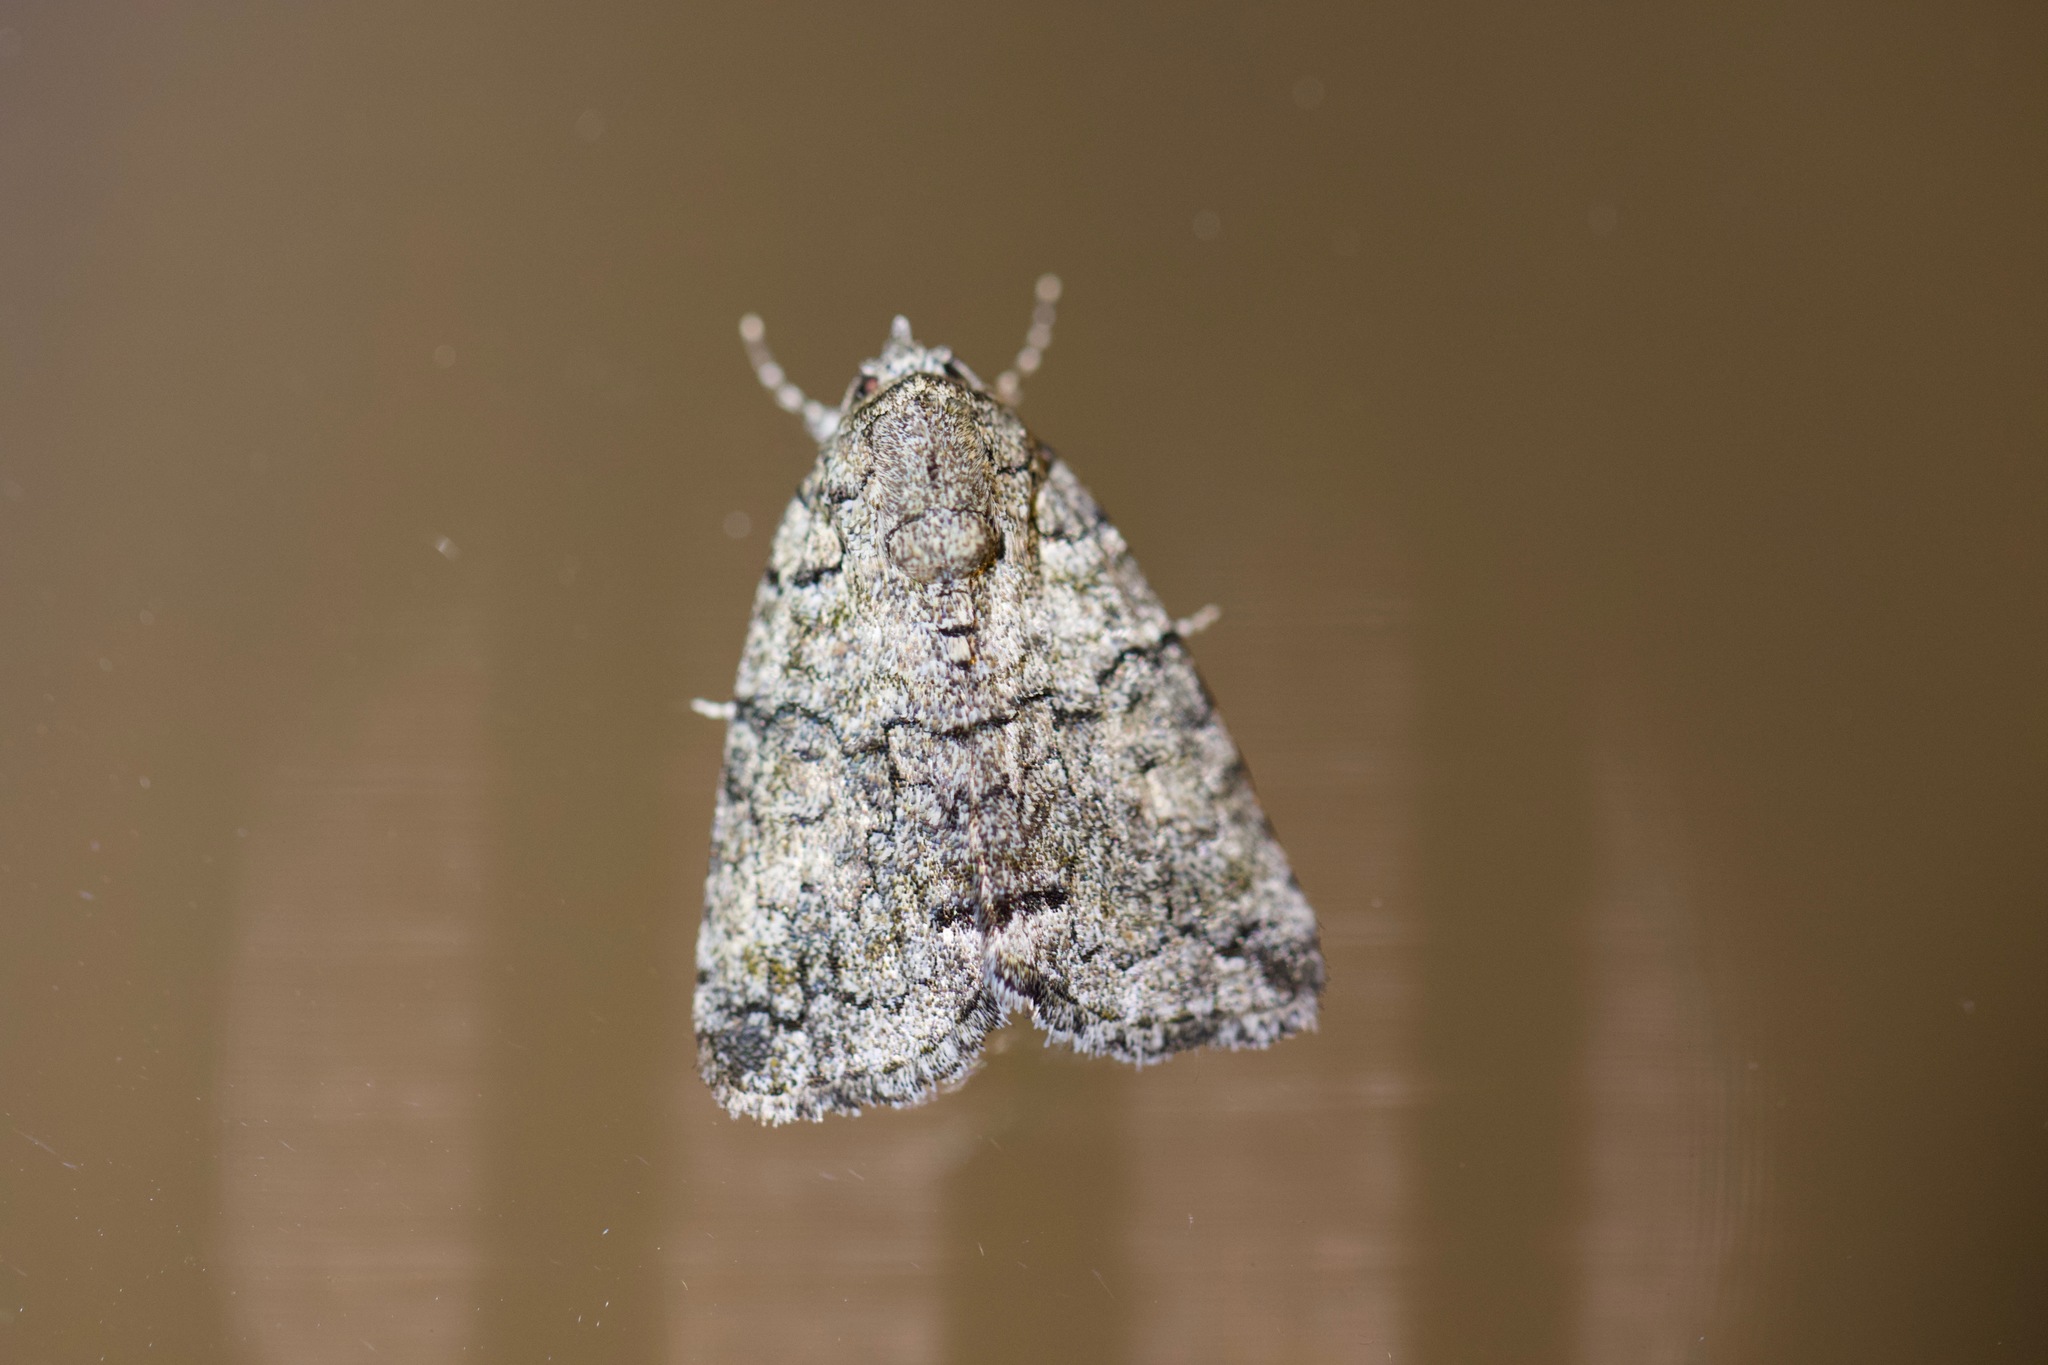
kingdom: Animalia
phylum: Arthropoda
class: Insecta
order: Lepidoptera
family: Nolidae
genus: Blenina
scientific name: Blenina squamifera
